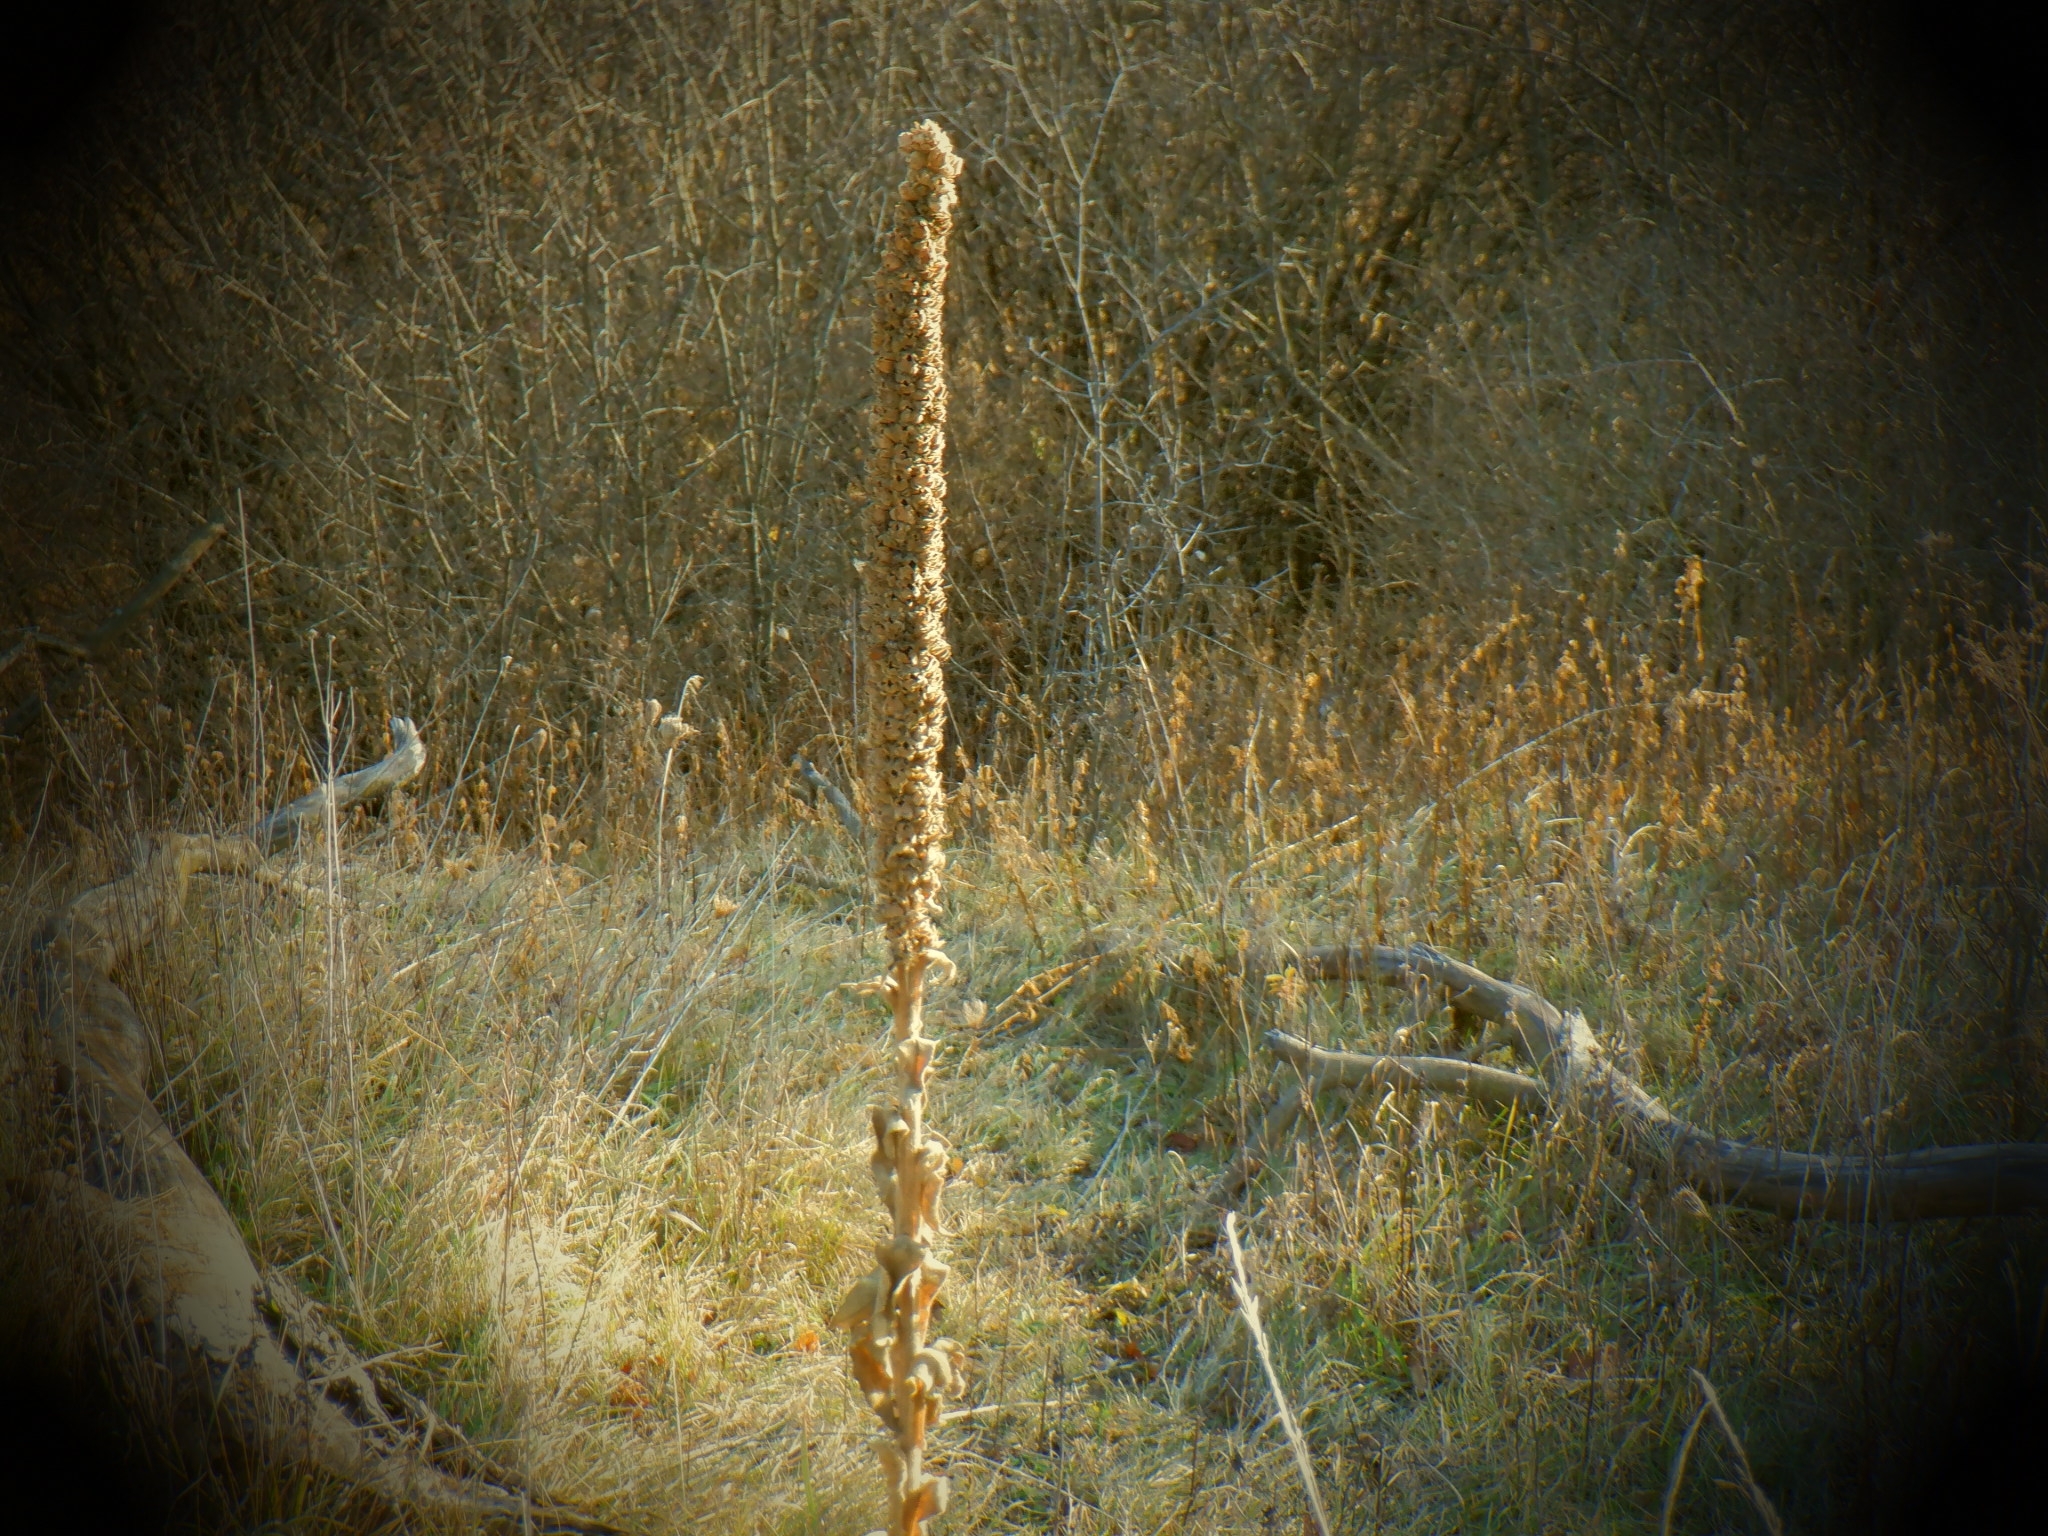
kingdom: Plantae
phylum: Tracheophyta
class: Magnoliopsida
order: Lamiales
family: Scrophulariaceae
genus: Verbascum
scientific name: Verbascum thapsus
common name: Common mullein
